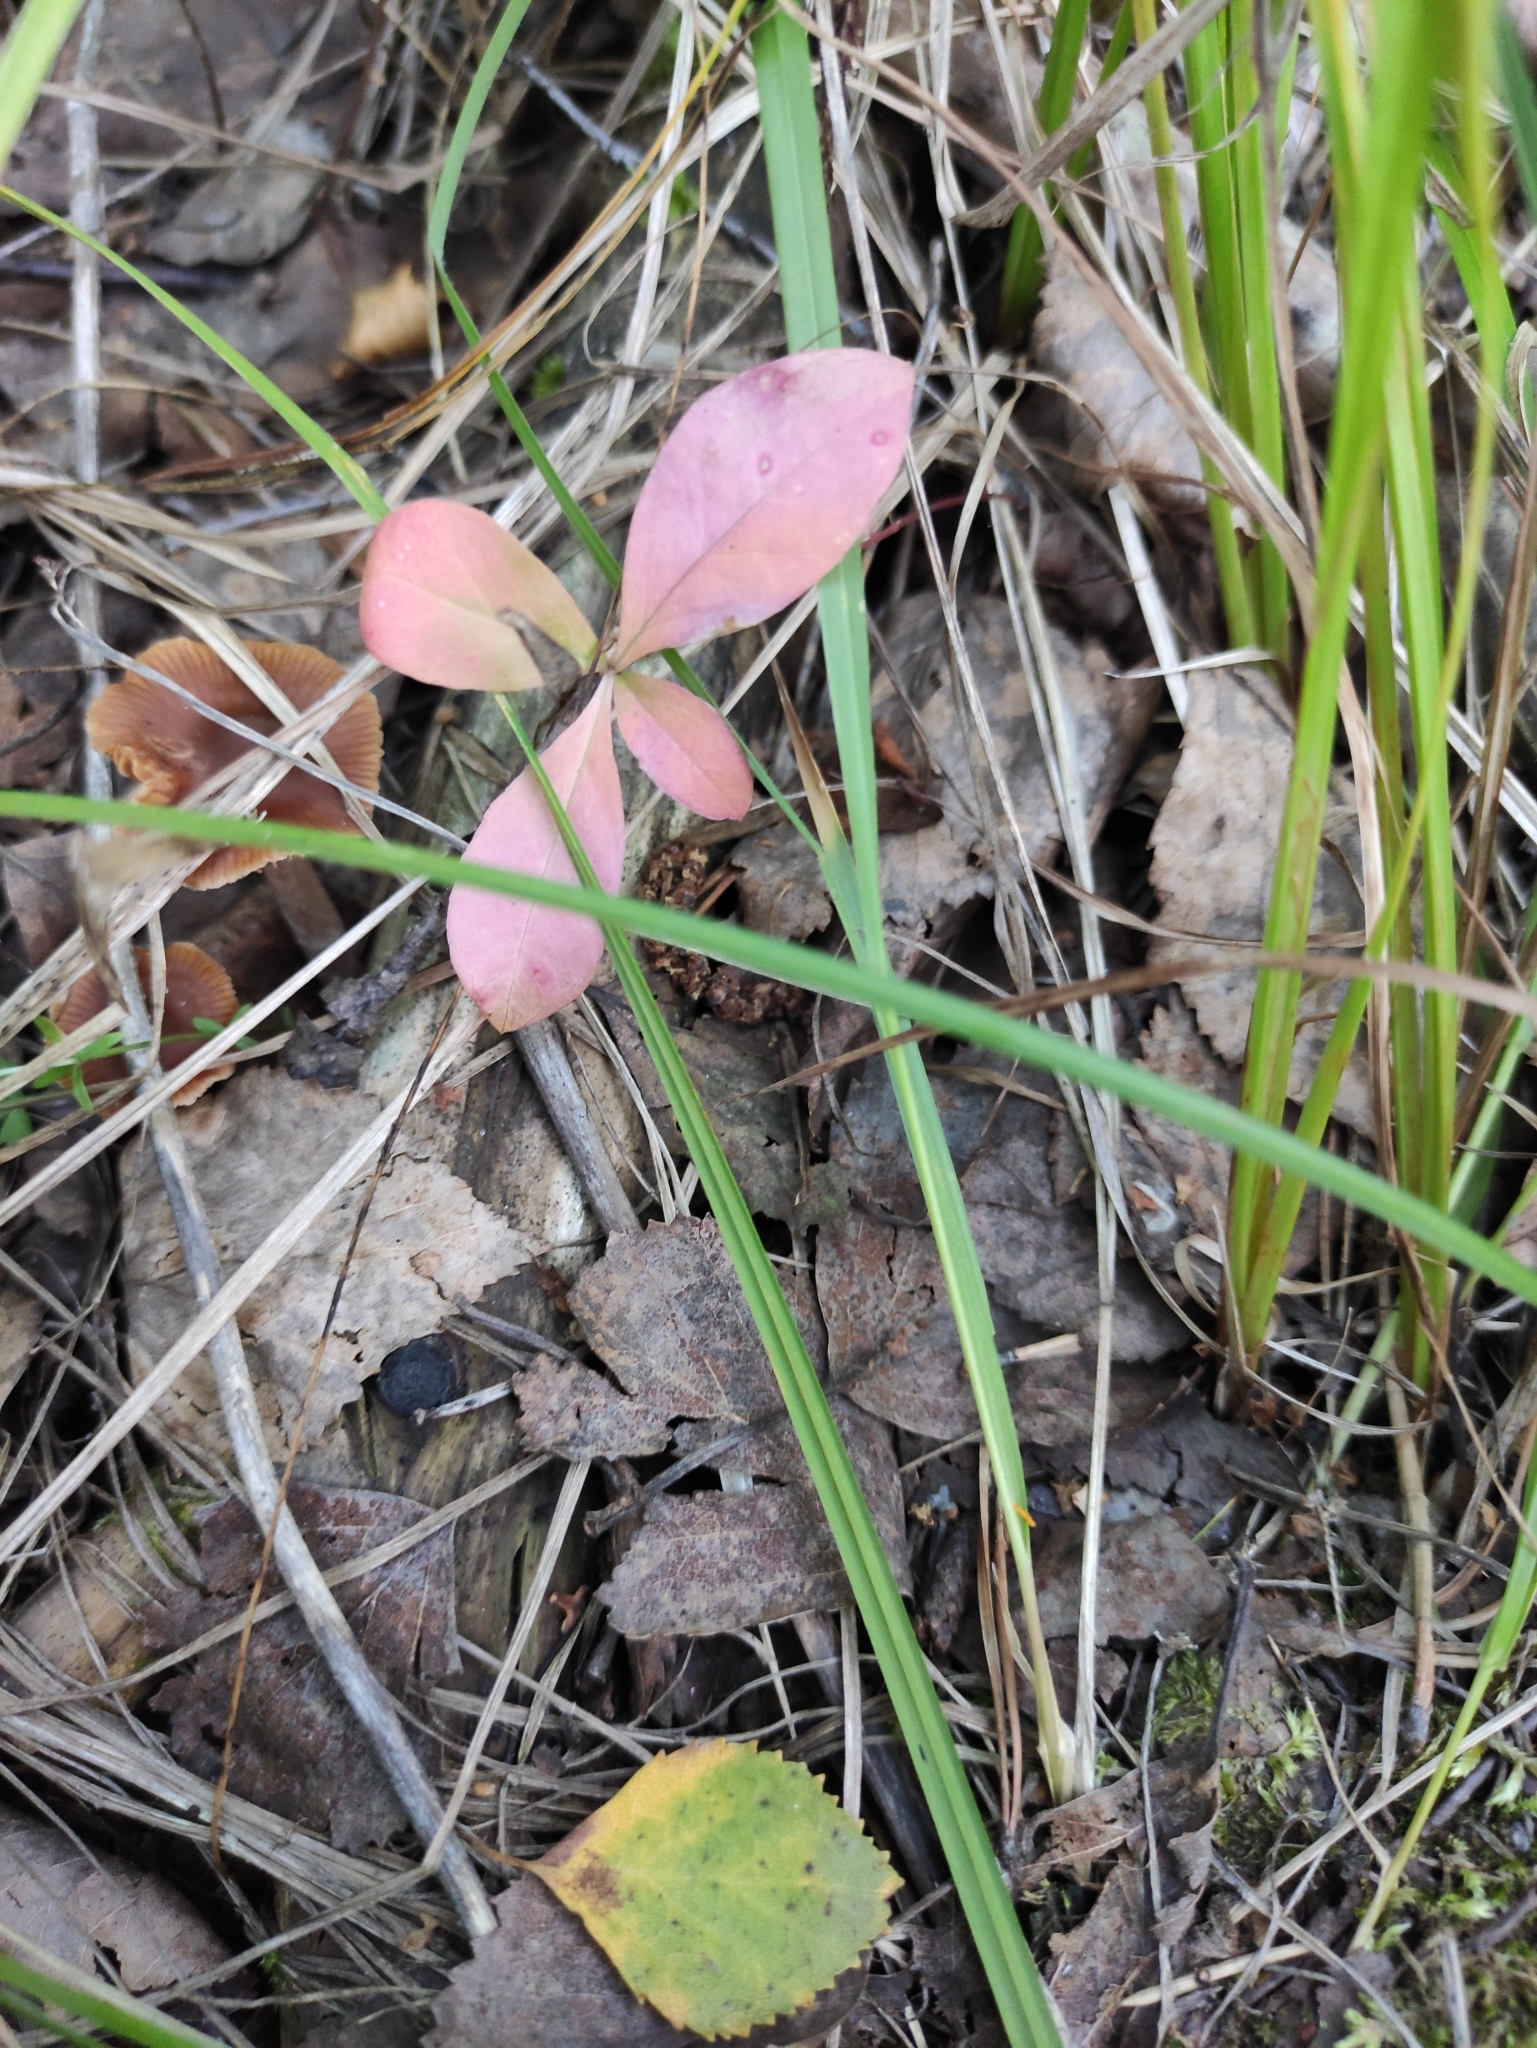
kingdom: Plantae
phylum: Tracheophyta
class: Magnoliopsida
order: Ericales
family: Primulaceae
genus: Lysimachia
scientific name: Lysimachia europaea
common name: Arctic starflower
